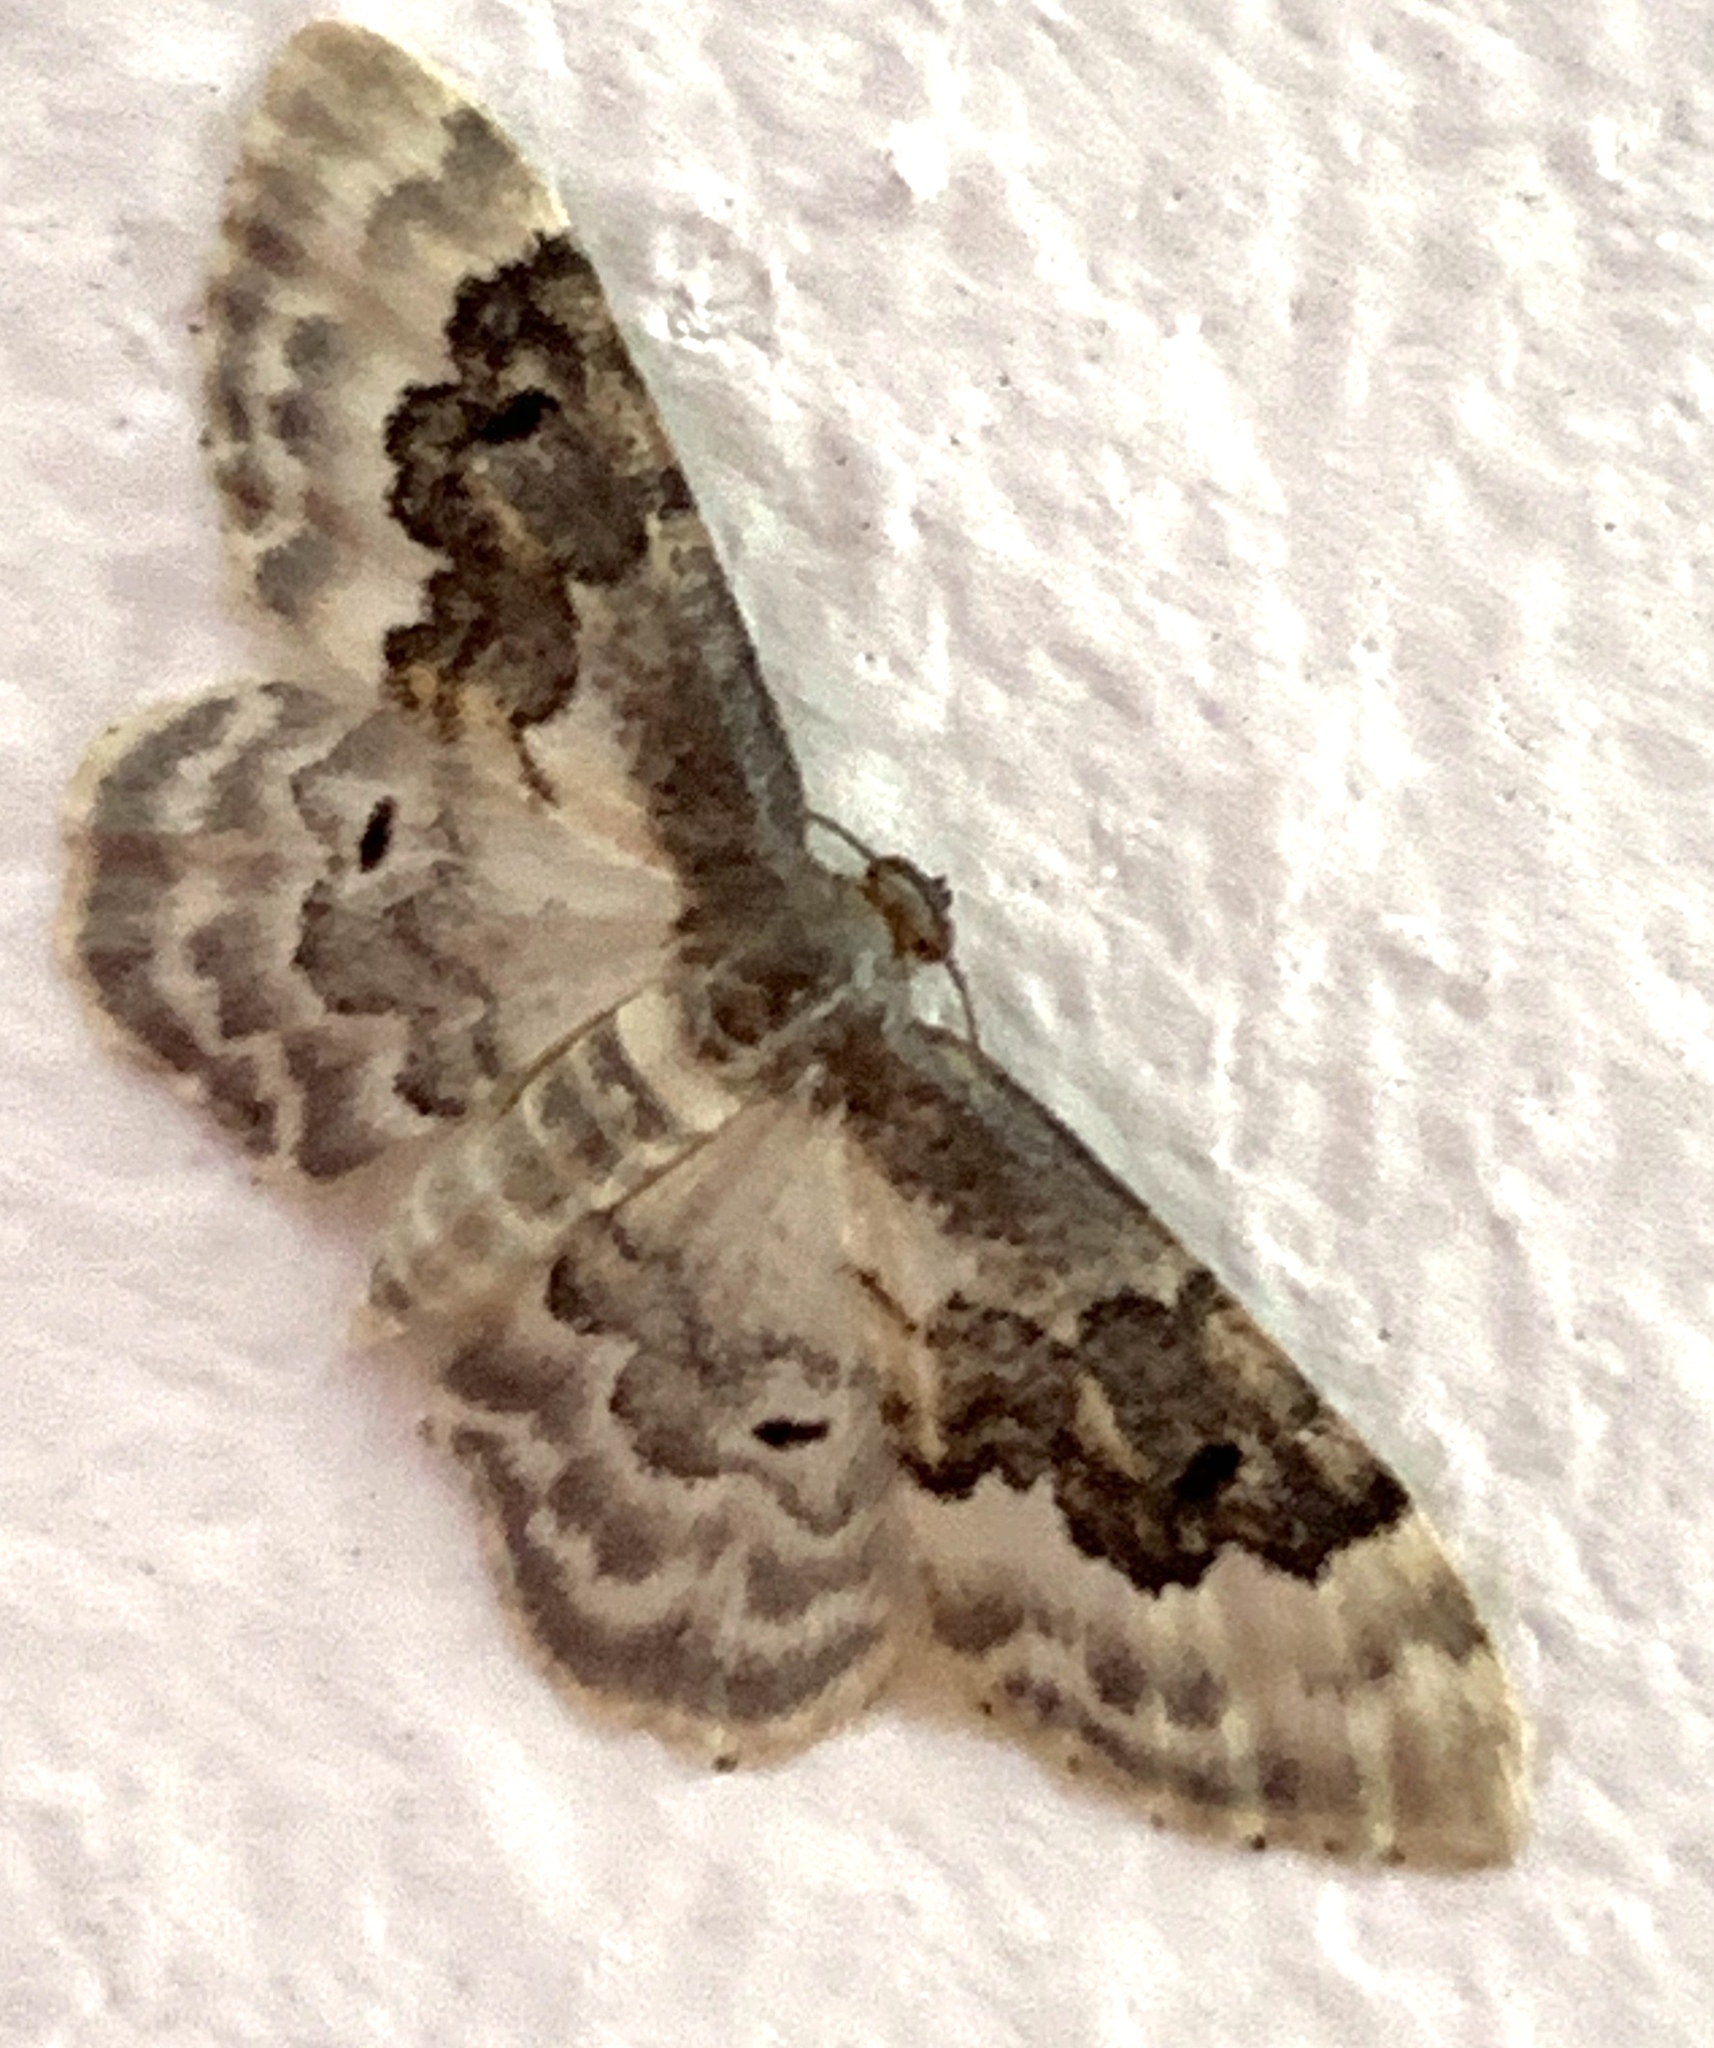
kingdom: Animalia
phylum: Arthropoda
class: Insecta
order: Lepidoptera
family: Geometridae
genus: Idaea
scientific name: Idaea rusticata
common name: Least carpet
